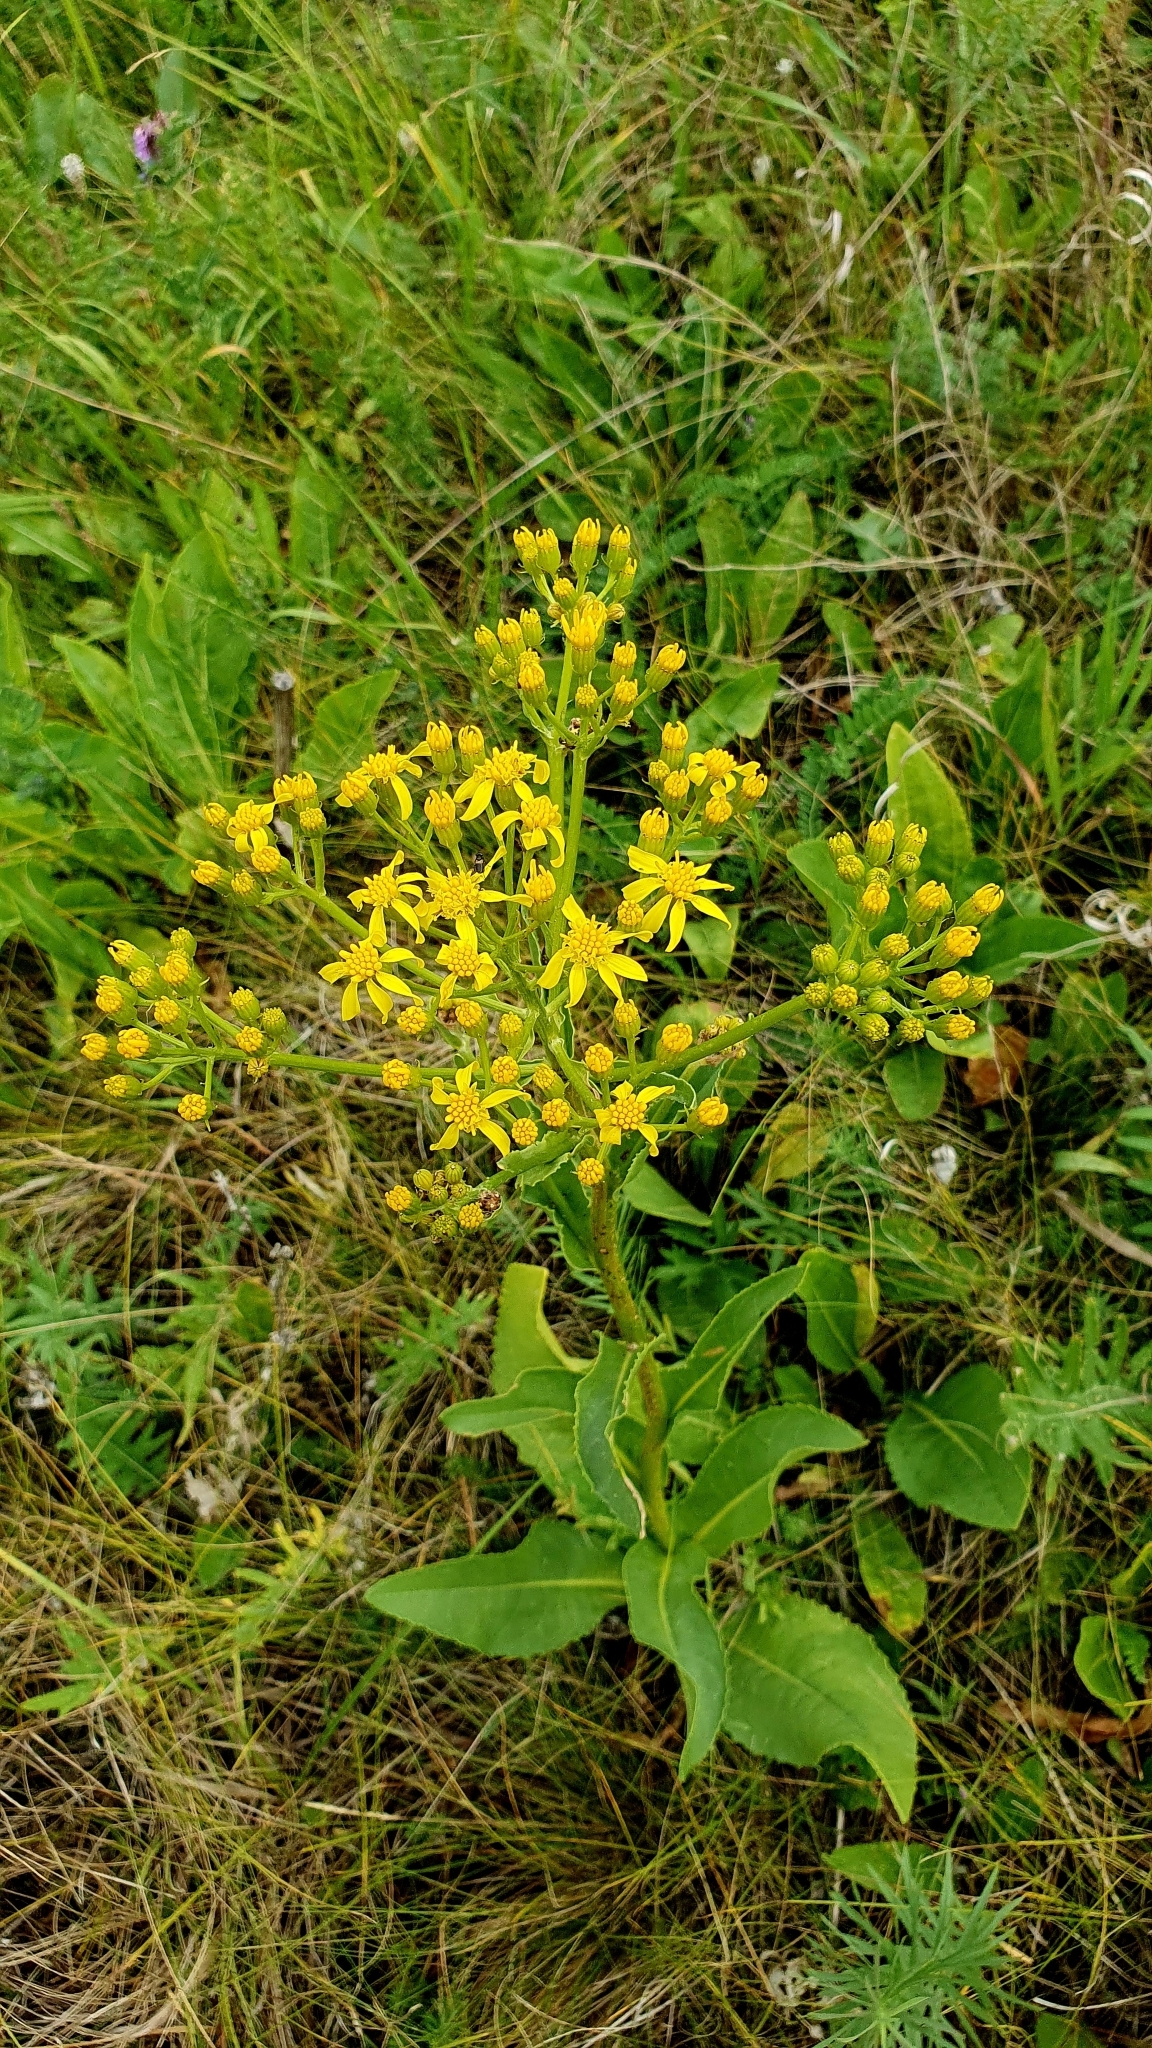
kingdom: Plantae
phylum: Tracheophyta
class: Magnoliopsida
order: Asterales
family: Asteraceae
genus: Senecio
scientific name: Senecio doria
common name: Golden ragwort
